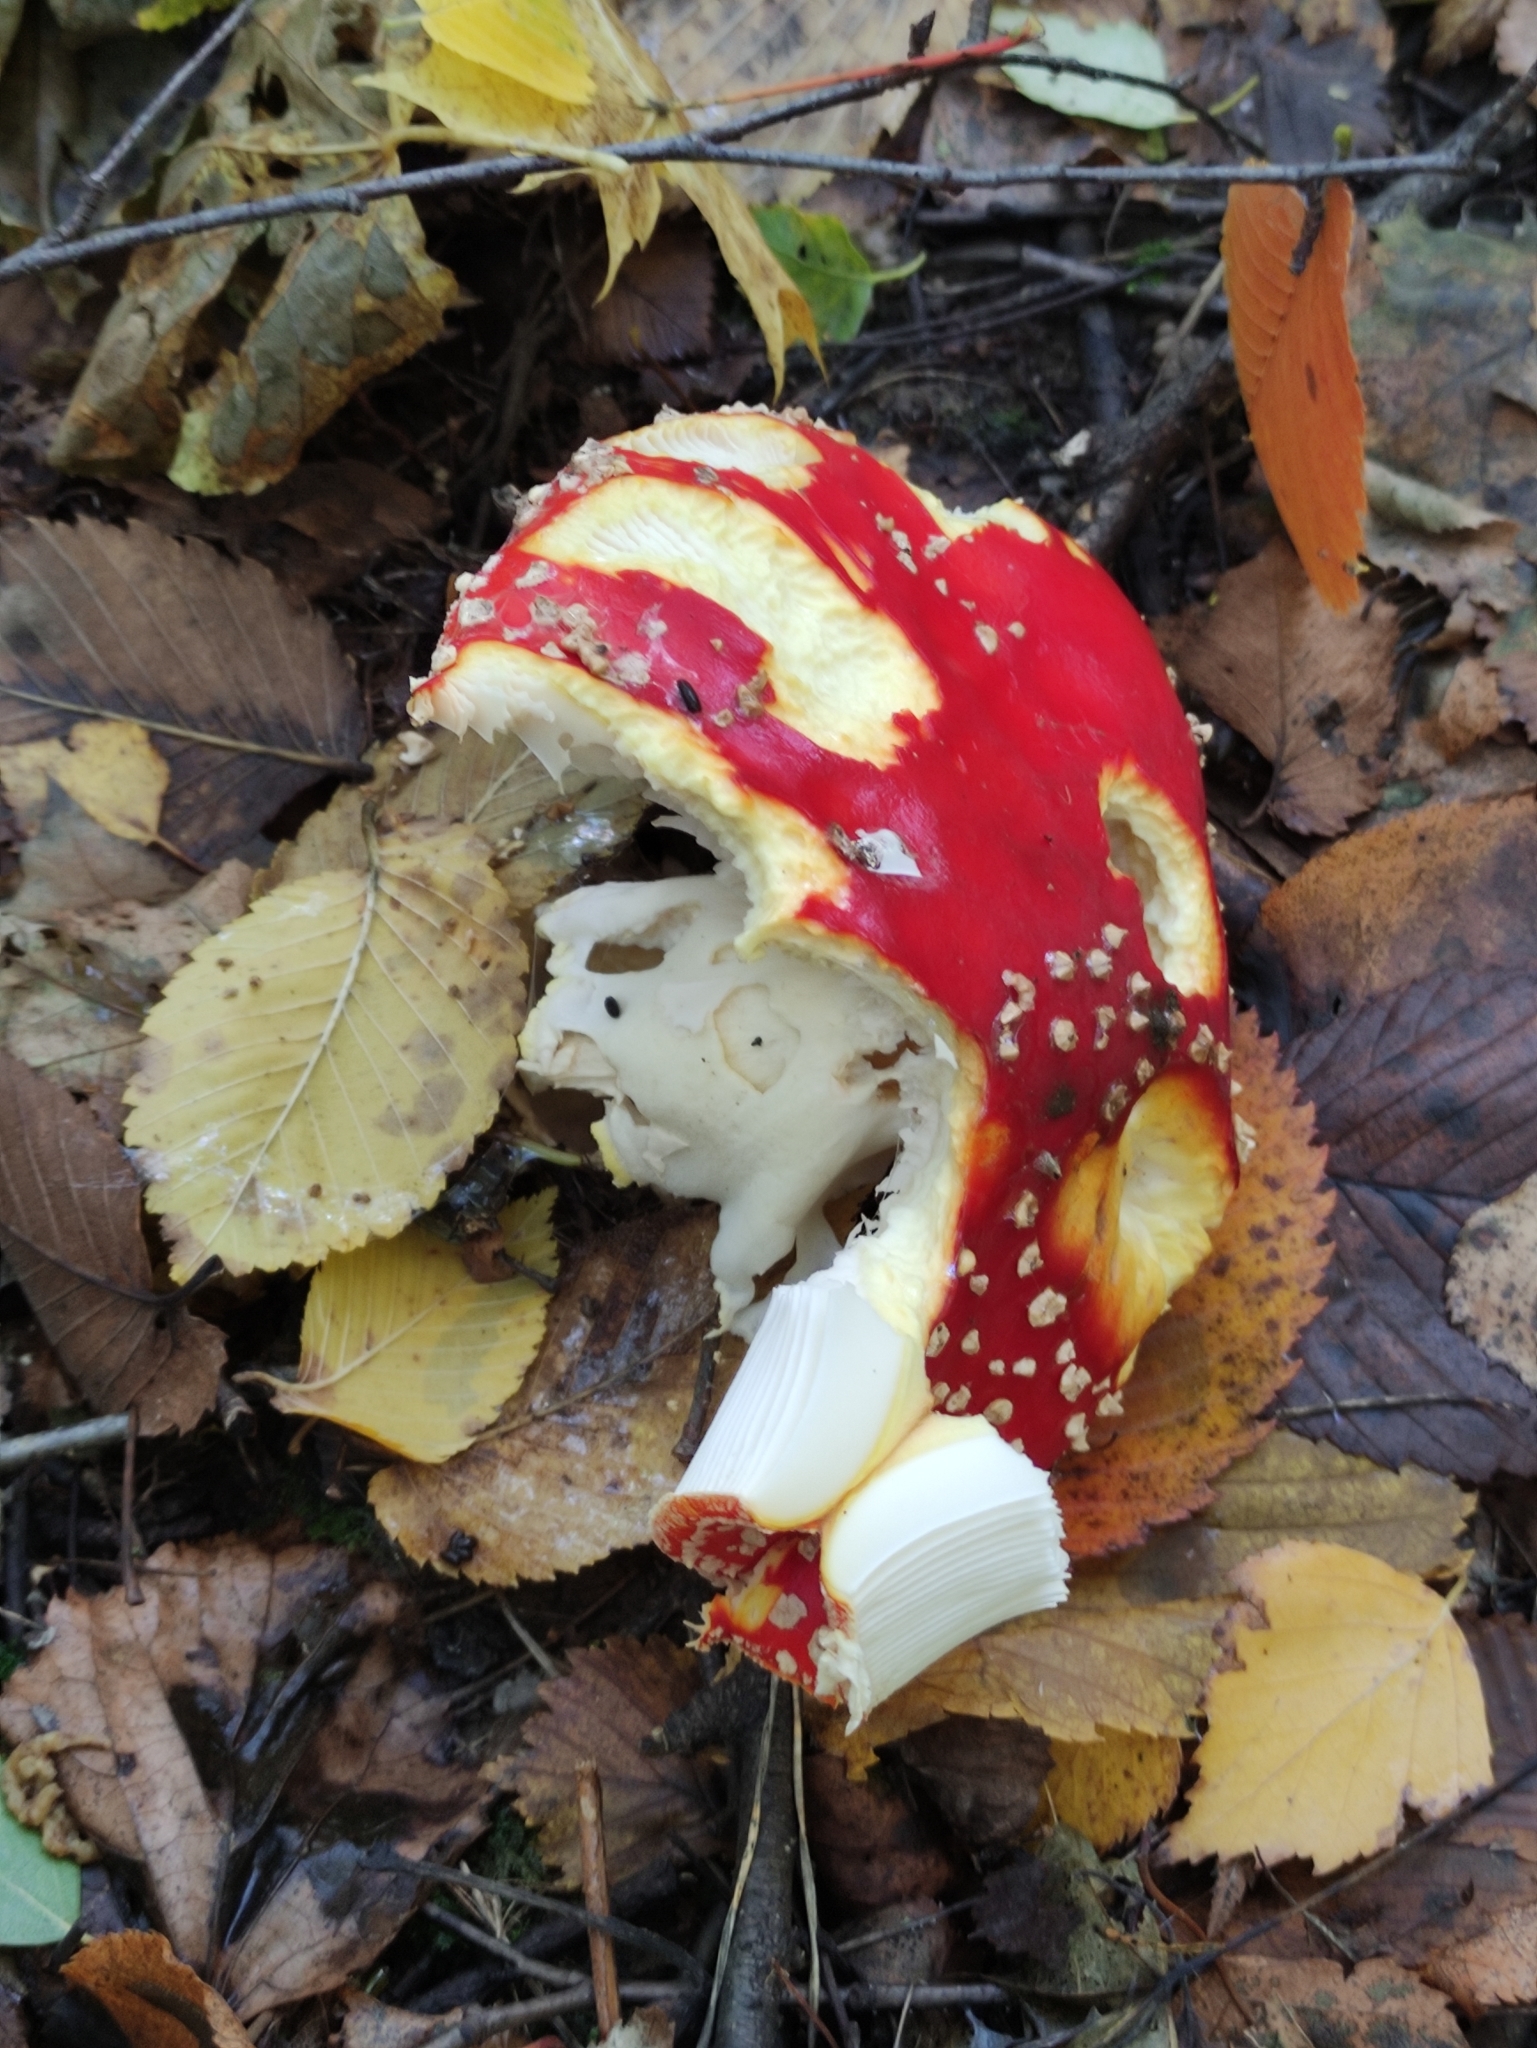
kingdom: Fungi
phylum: Basidiomycota
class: Agaricomycetes
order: Agaricales
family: Amanitaceae
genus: Amanita
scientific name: Amanita muscaria
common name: Fly agaric
